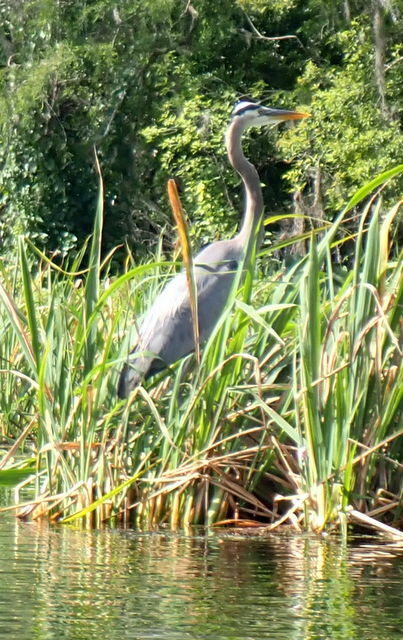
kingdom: Animalia
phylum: Chordata
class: Aves
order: Pelecaniformes
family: Ardeidae
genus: Ardea
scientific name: Ardea herodias
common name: Great blue heron
